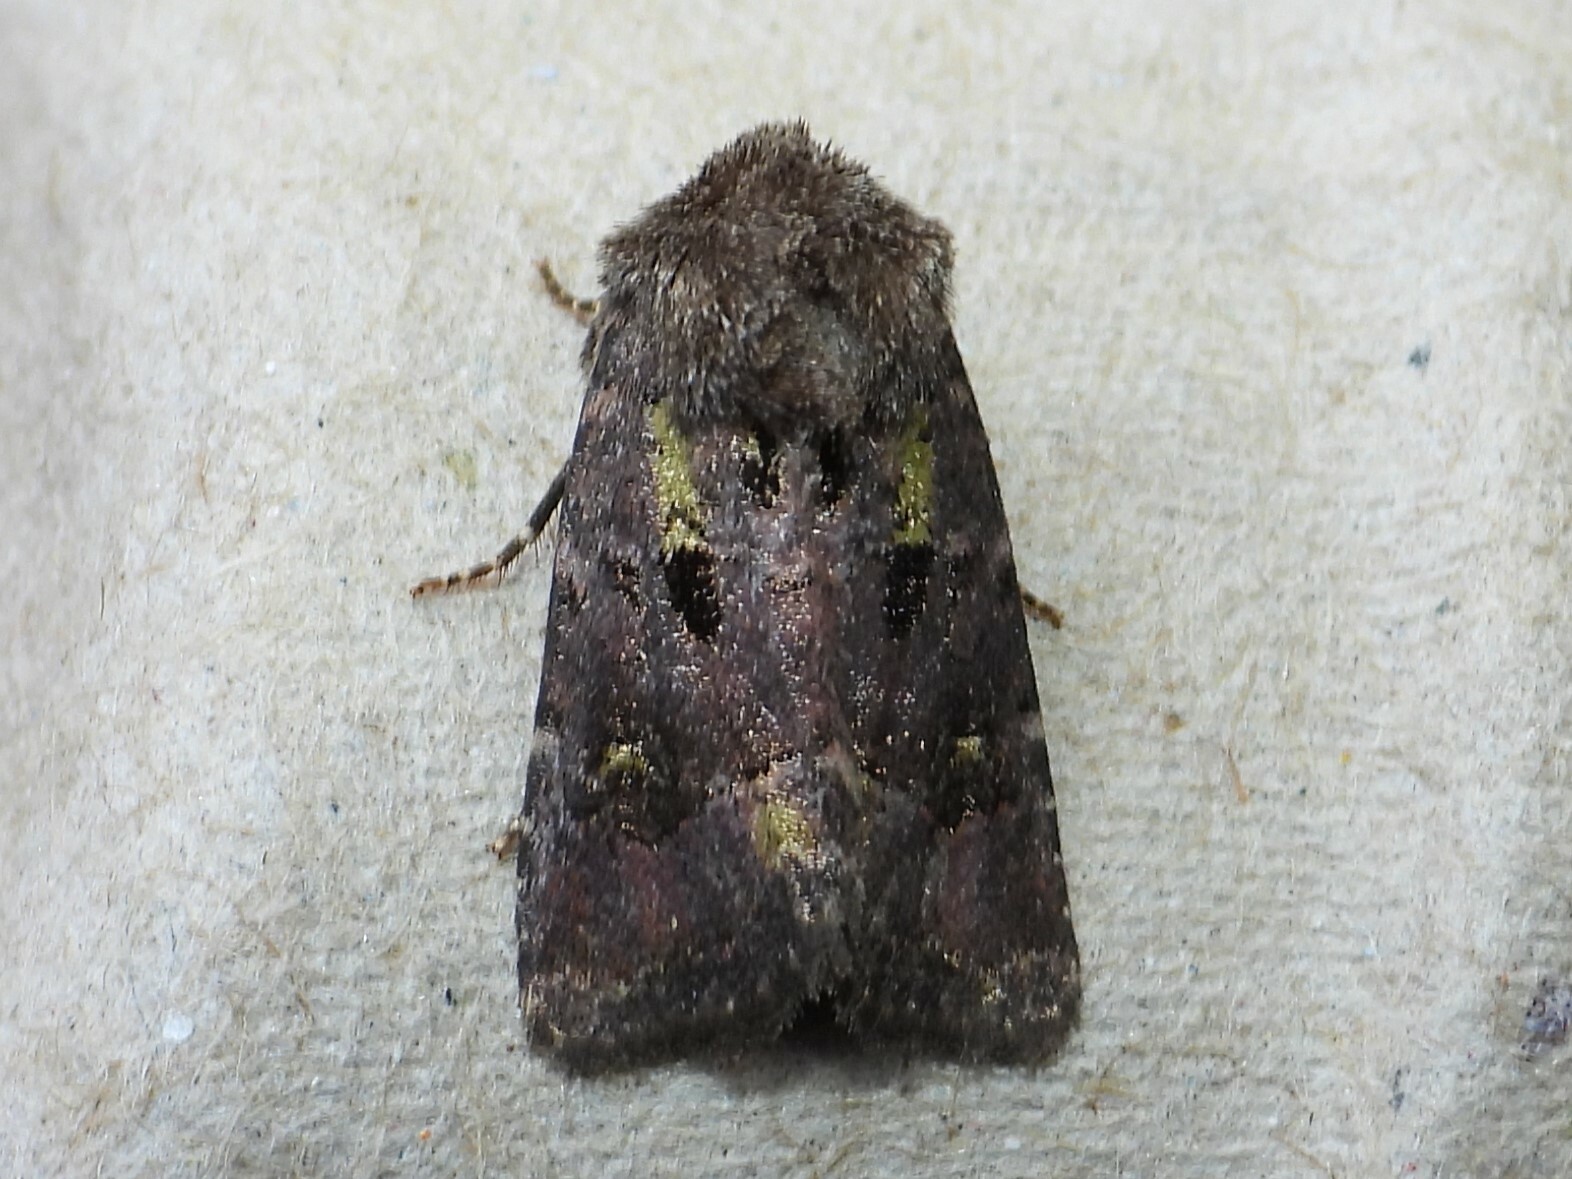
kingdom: Animalia
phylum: Arthropoda
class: Insecta
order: Lepidoptera
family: Noctuidae
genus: Lacinipolia
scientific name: Lacinipolia renigera
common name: Kidney-spotted minor
